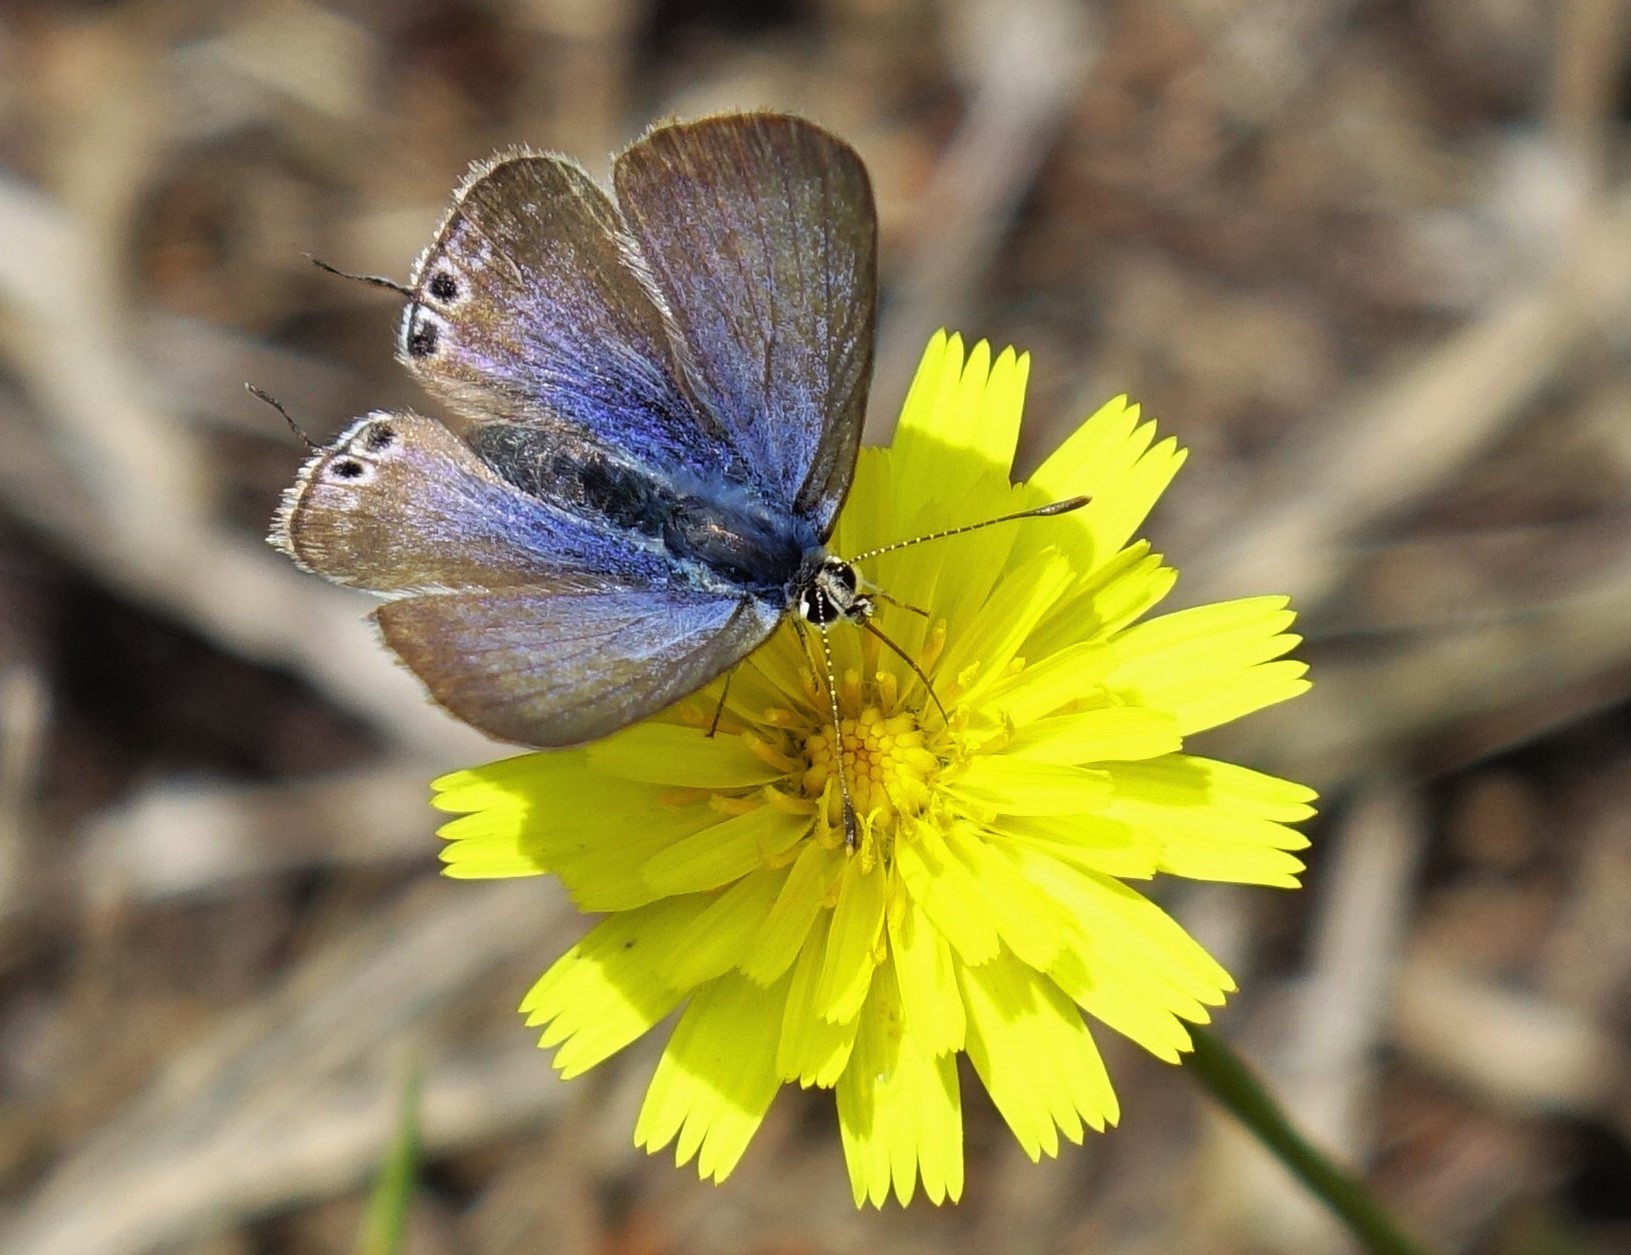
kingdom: Animalia
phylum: Arthropoda
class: Insecta
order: Lepidoptera
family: Lycaenidae
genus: Lampides
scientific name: Lampides boeticus
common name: Long-tailed blue
